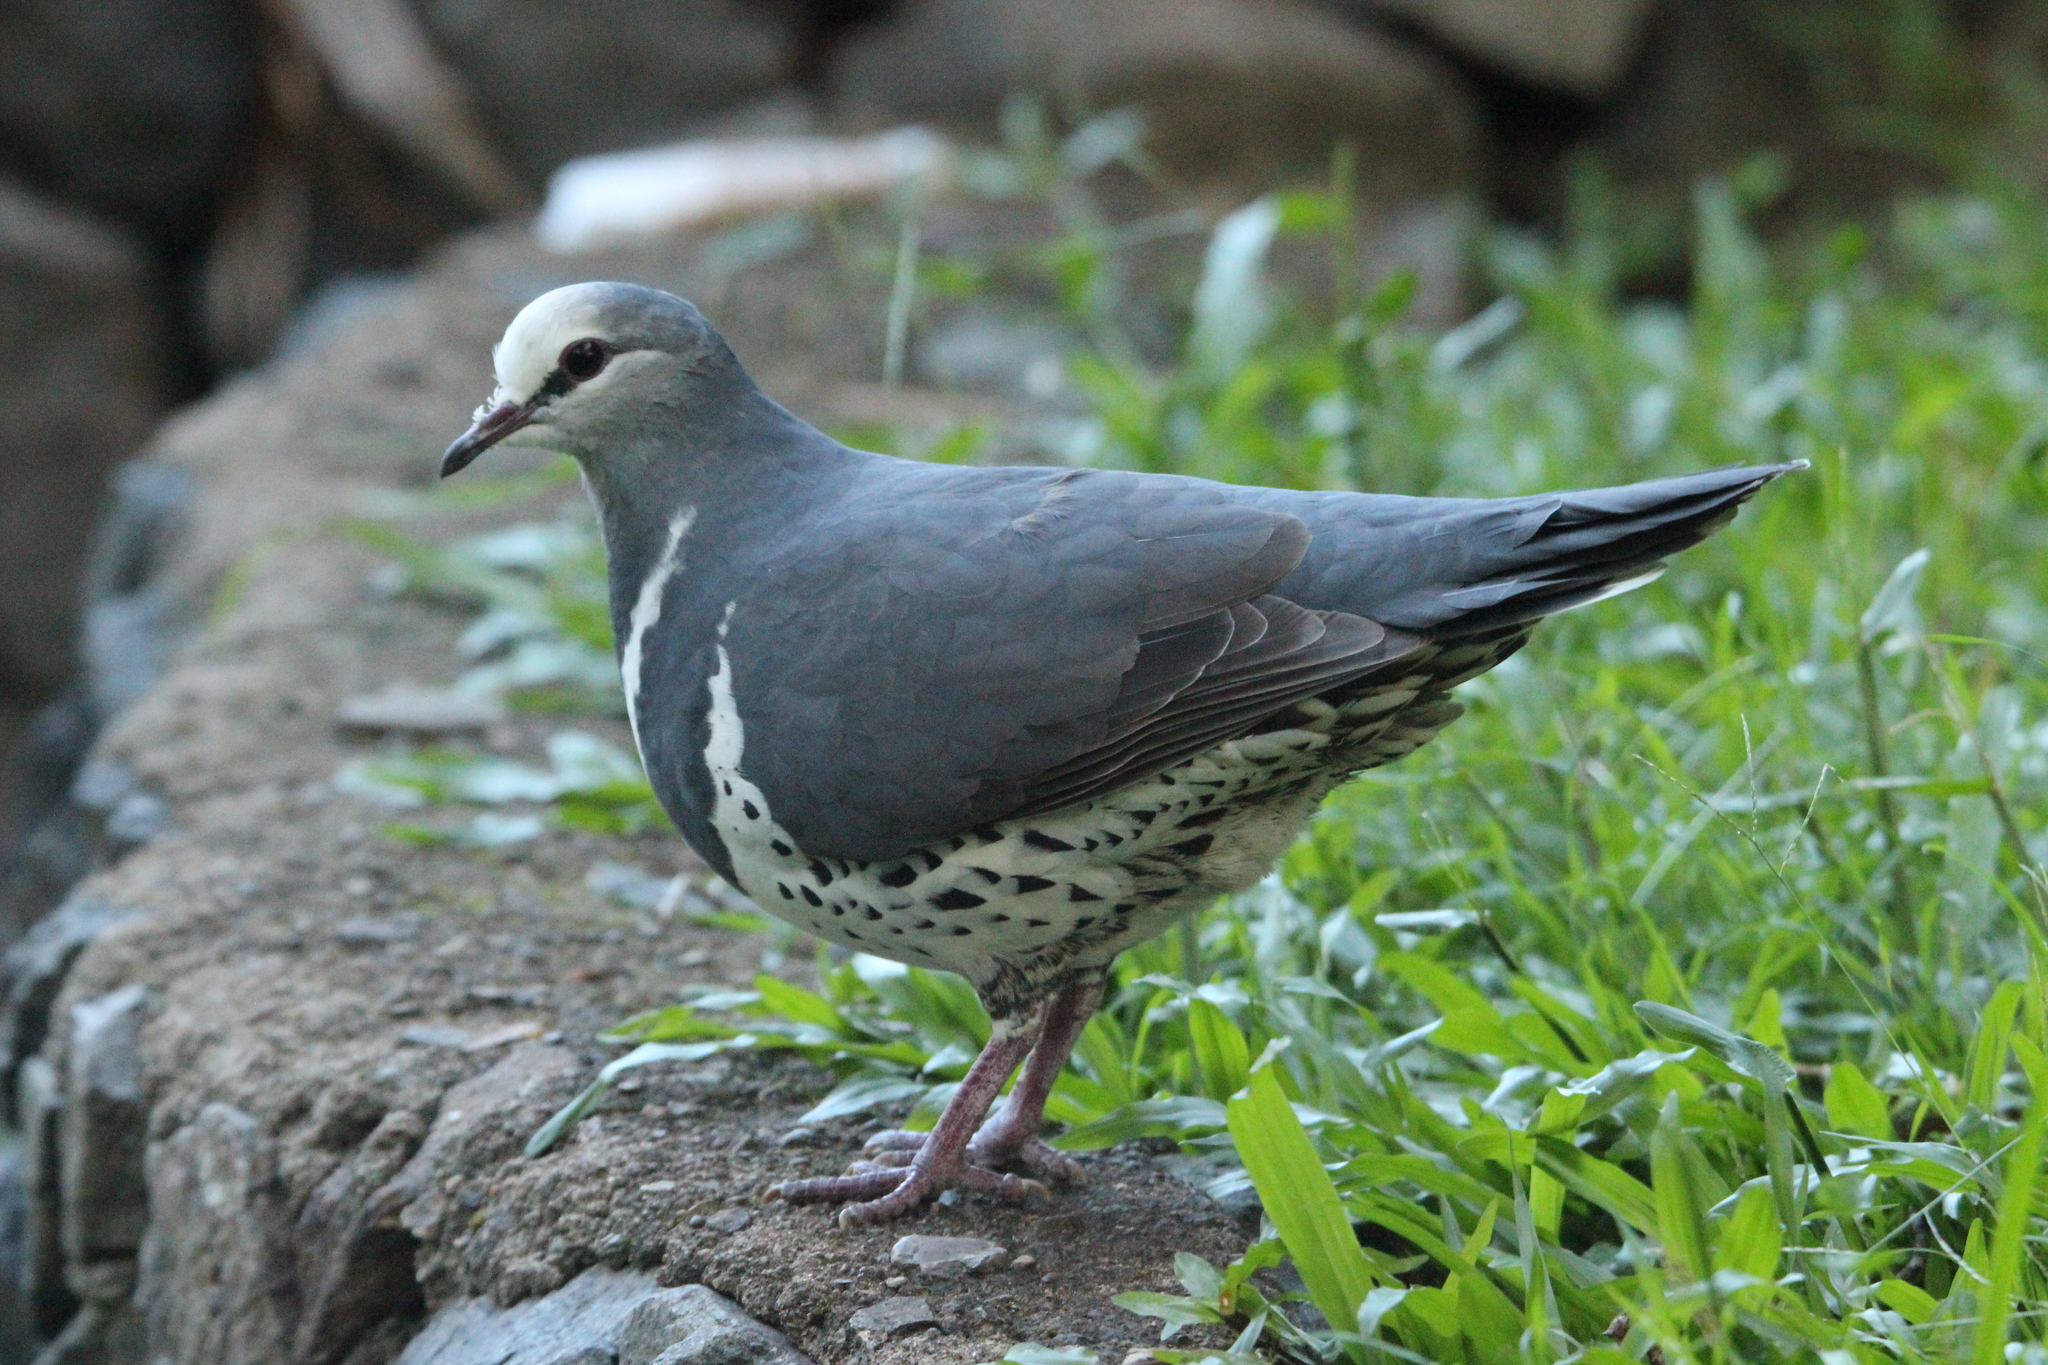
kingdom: Animalia
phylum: Chordata
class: Aves
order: Columbiformes
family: Columbidae
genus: Leucosarcia
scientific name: Leucosarcia melanoleuca
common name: Wonga pigeon
